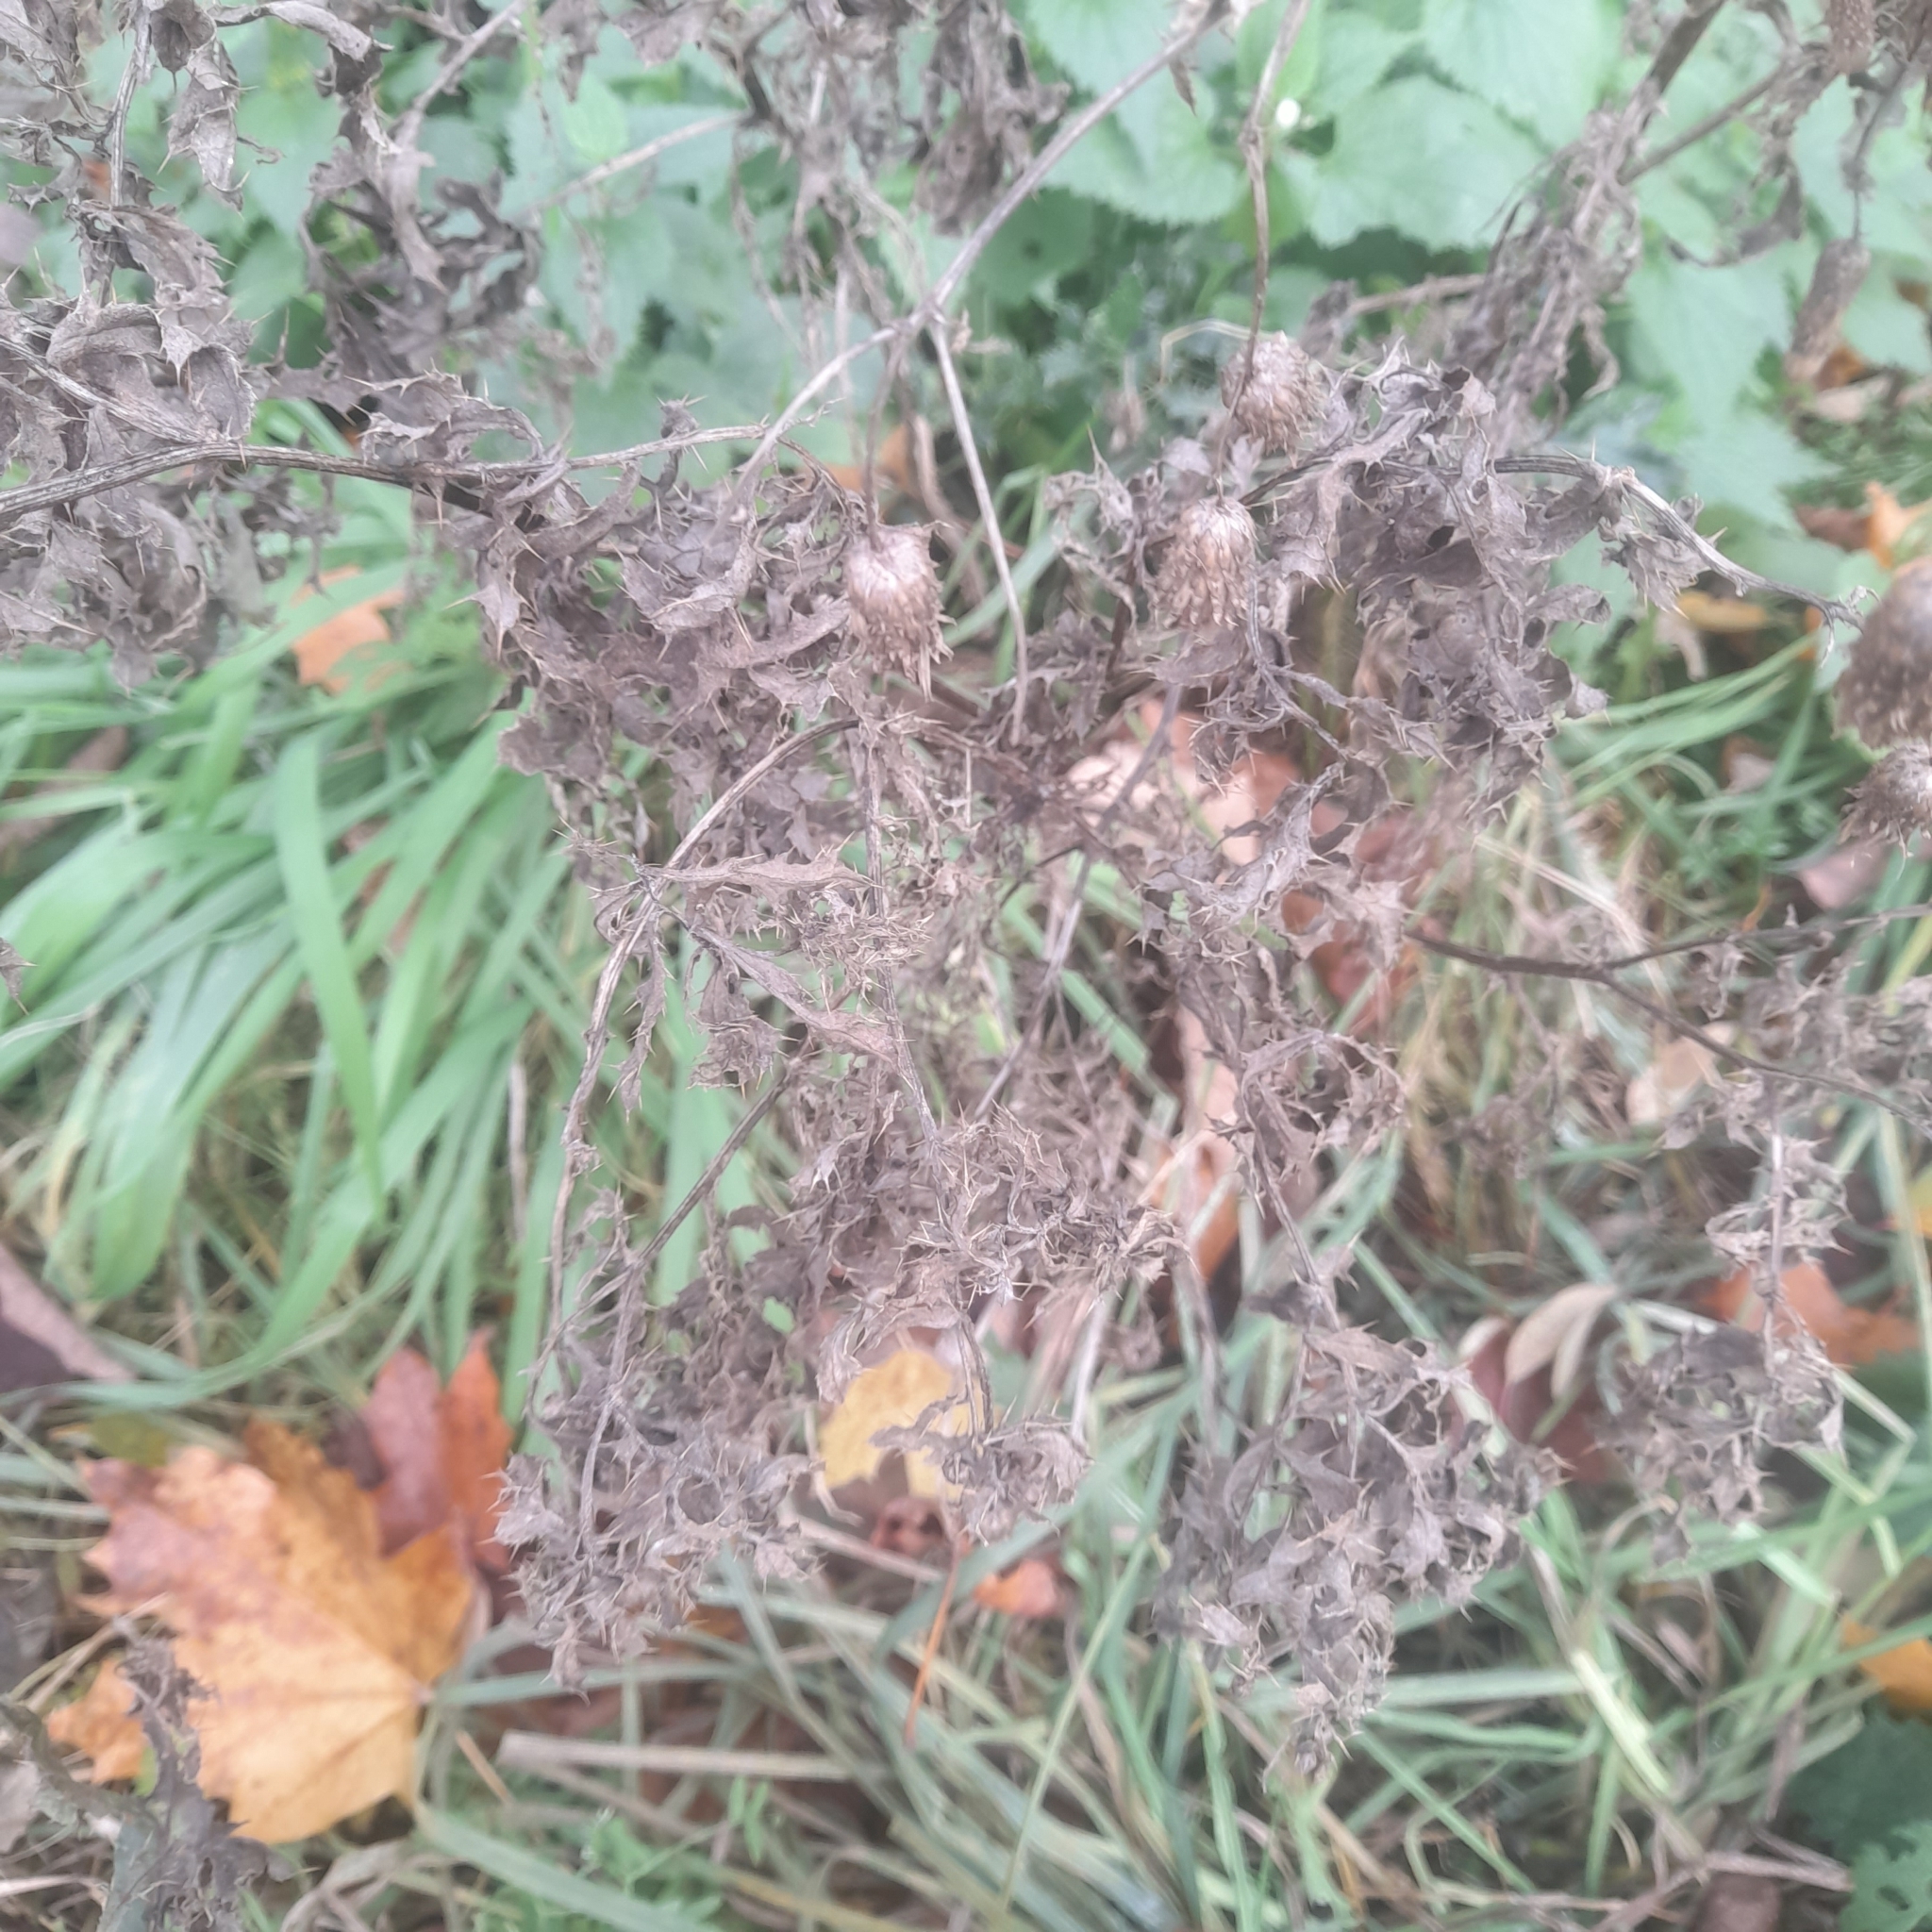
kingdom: Plantae
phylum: Tracheophyta
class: Magnoliopsida
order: Asterales
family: Asteraceae
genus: Cirsium
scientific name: Cirsium arvense
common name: Creeping thistle
